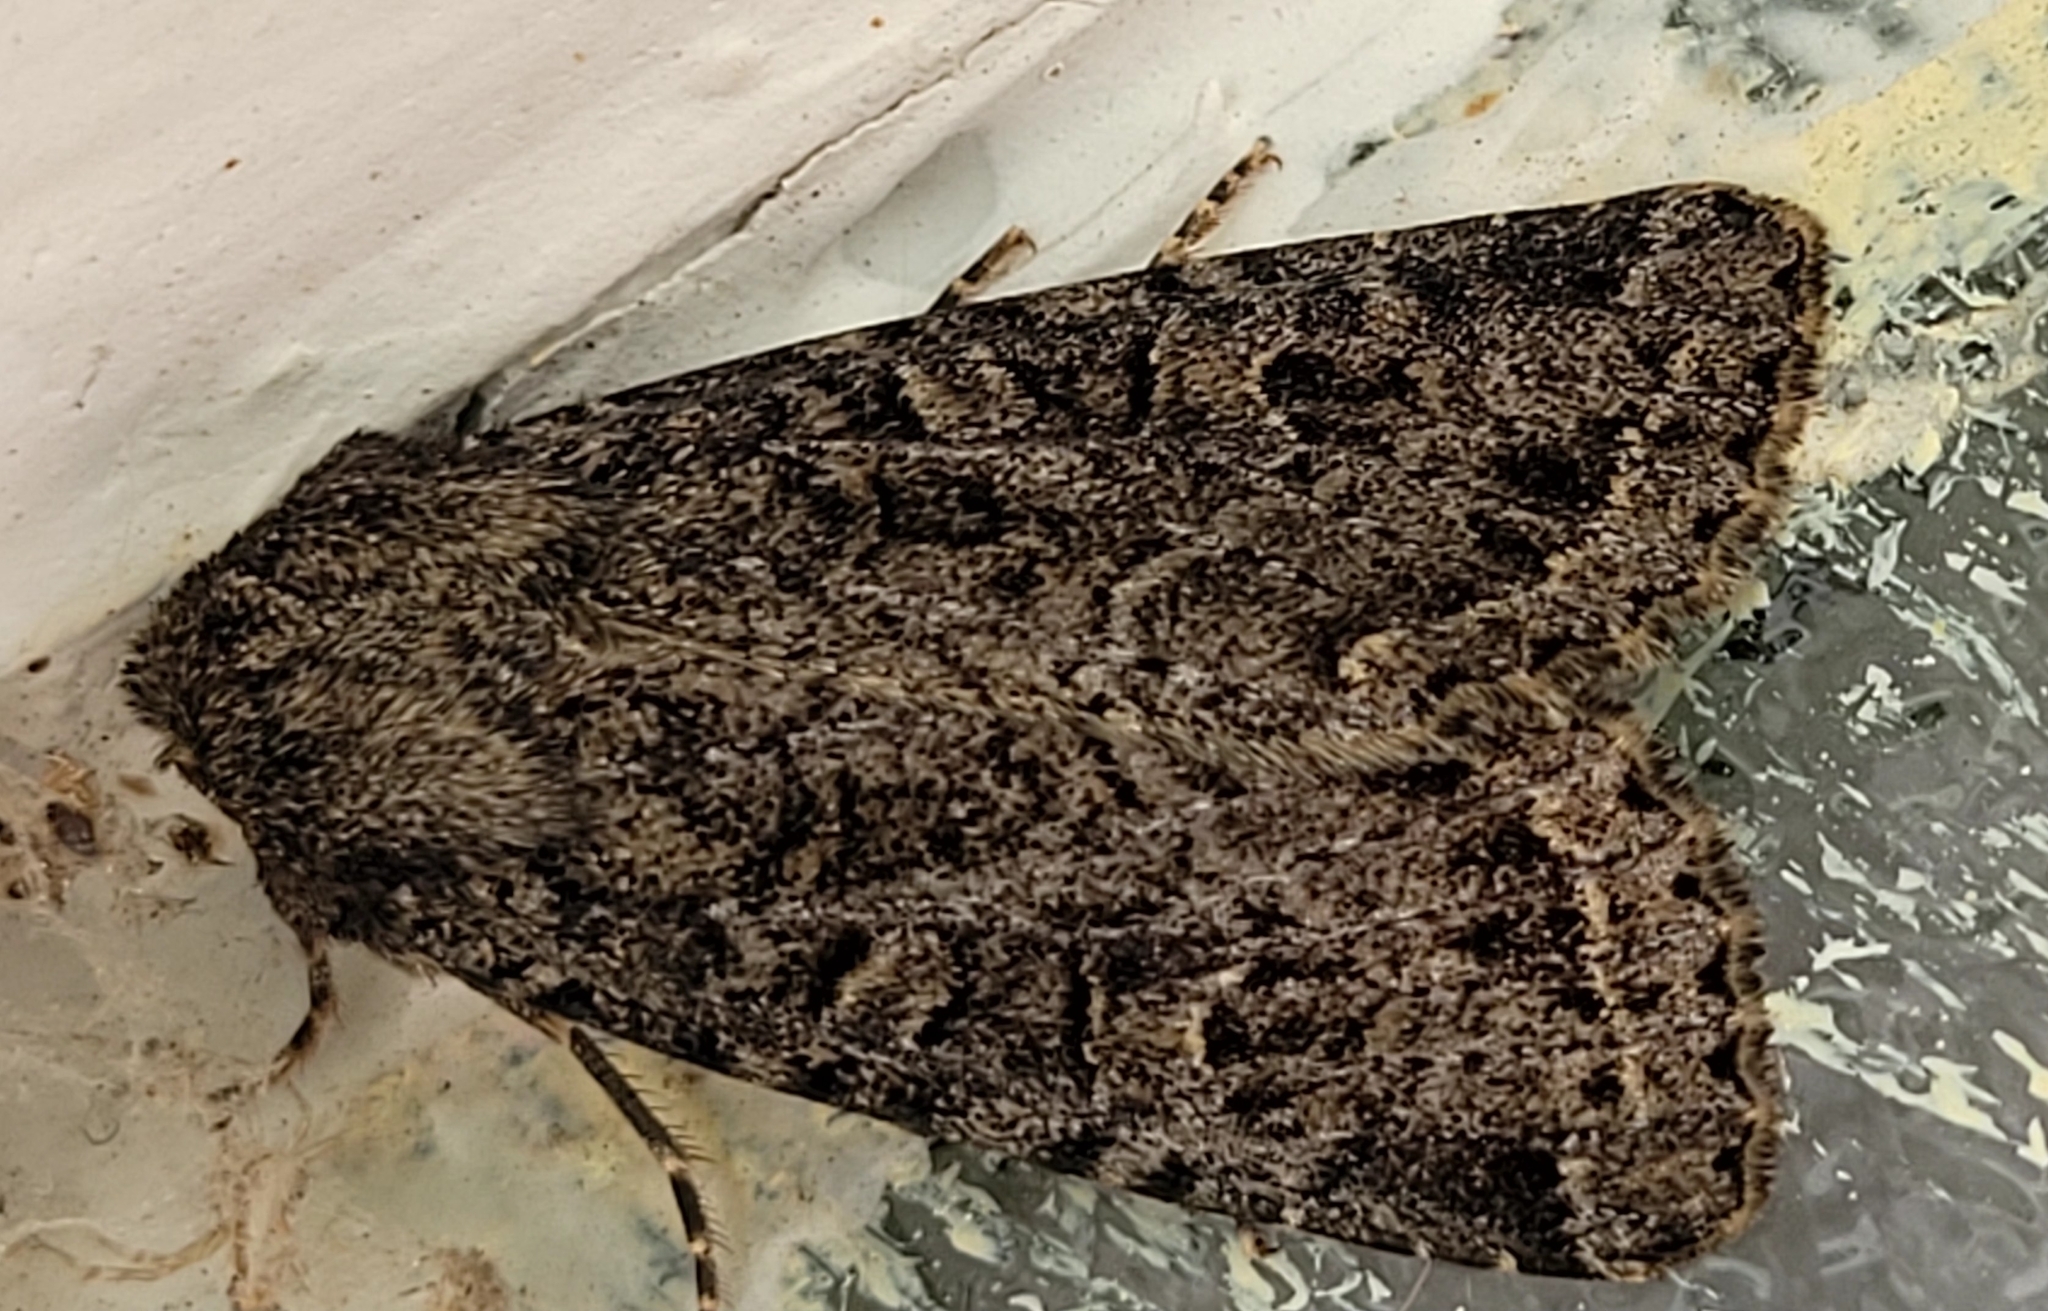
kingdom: Animalia
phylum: Arthropoda
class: Insecta
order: Lepidoptera
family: Noctuidae
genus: Apamea
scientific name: Apamea devastator
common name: Glassy cutworm
